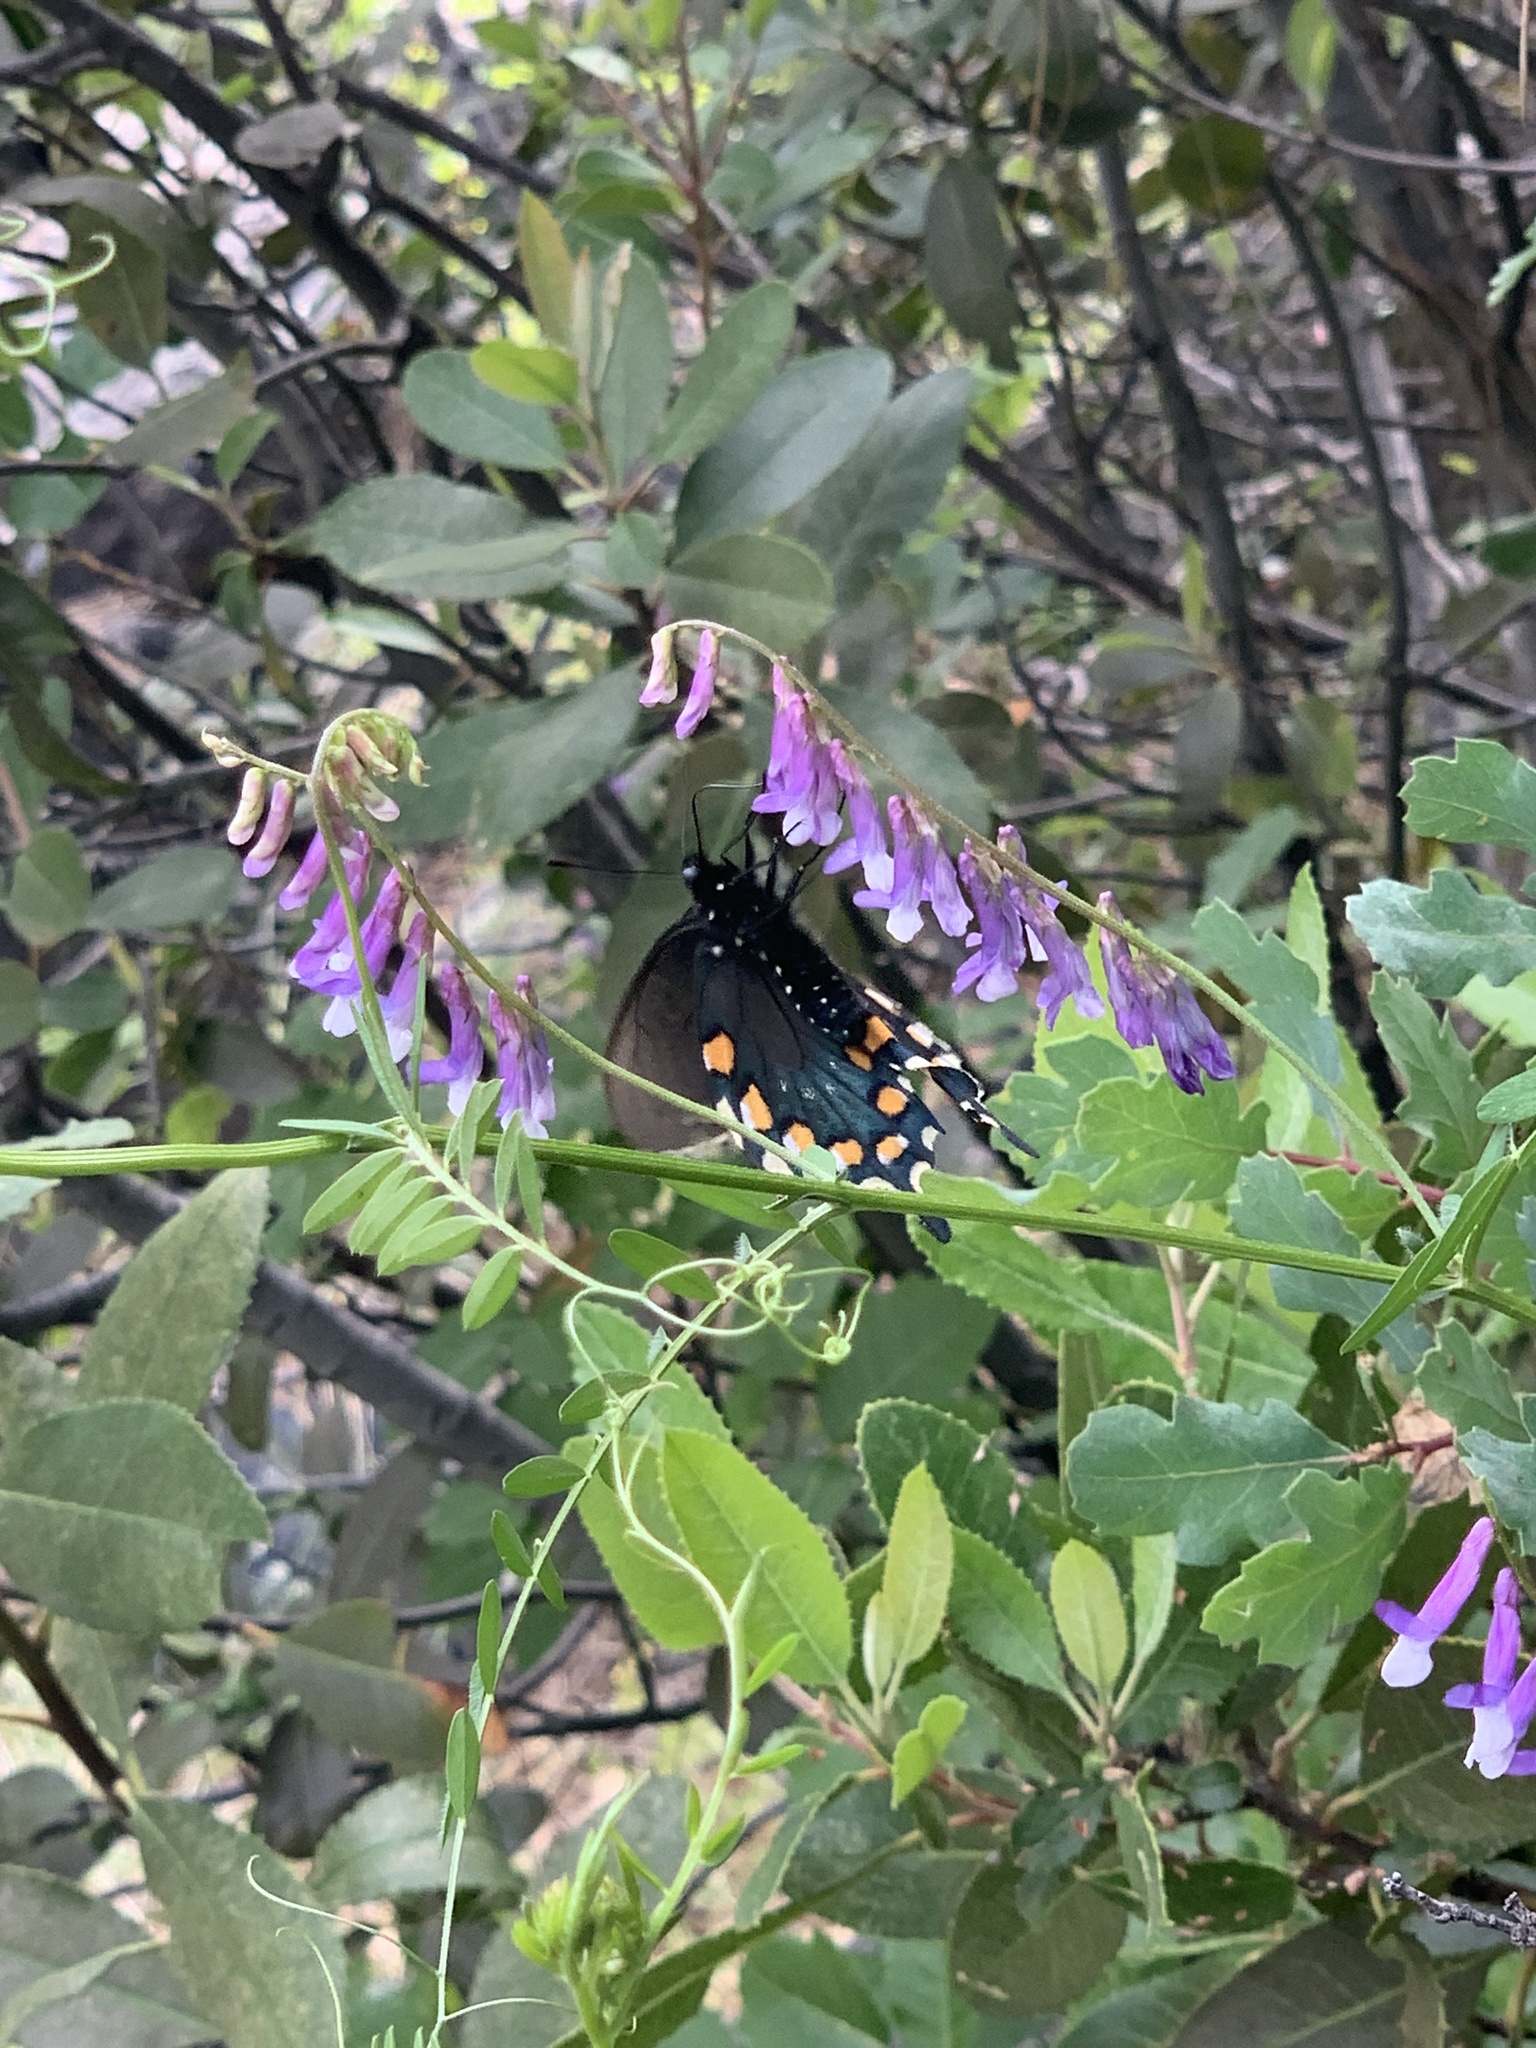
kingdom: Animalia
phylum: Arthropoda
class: Insecta
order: Lepidoptera
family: Papilionidae
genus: Battus
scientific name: Battus philenor
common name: Pipevine swallowtail
